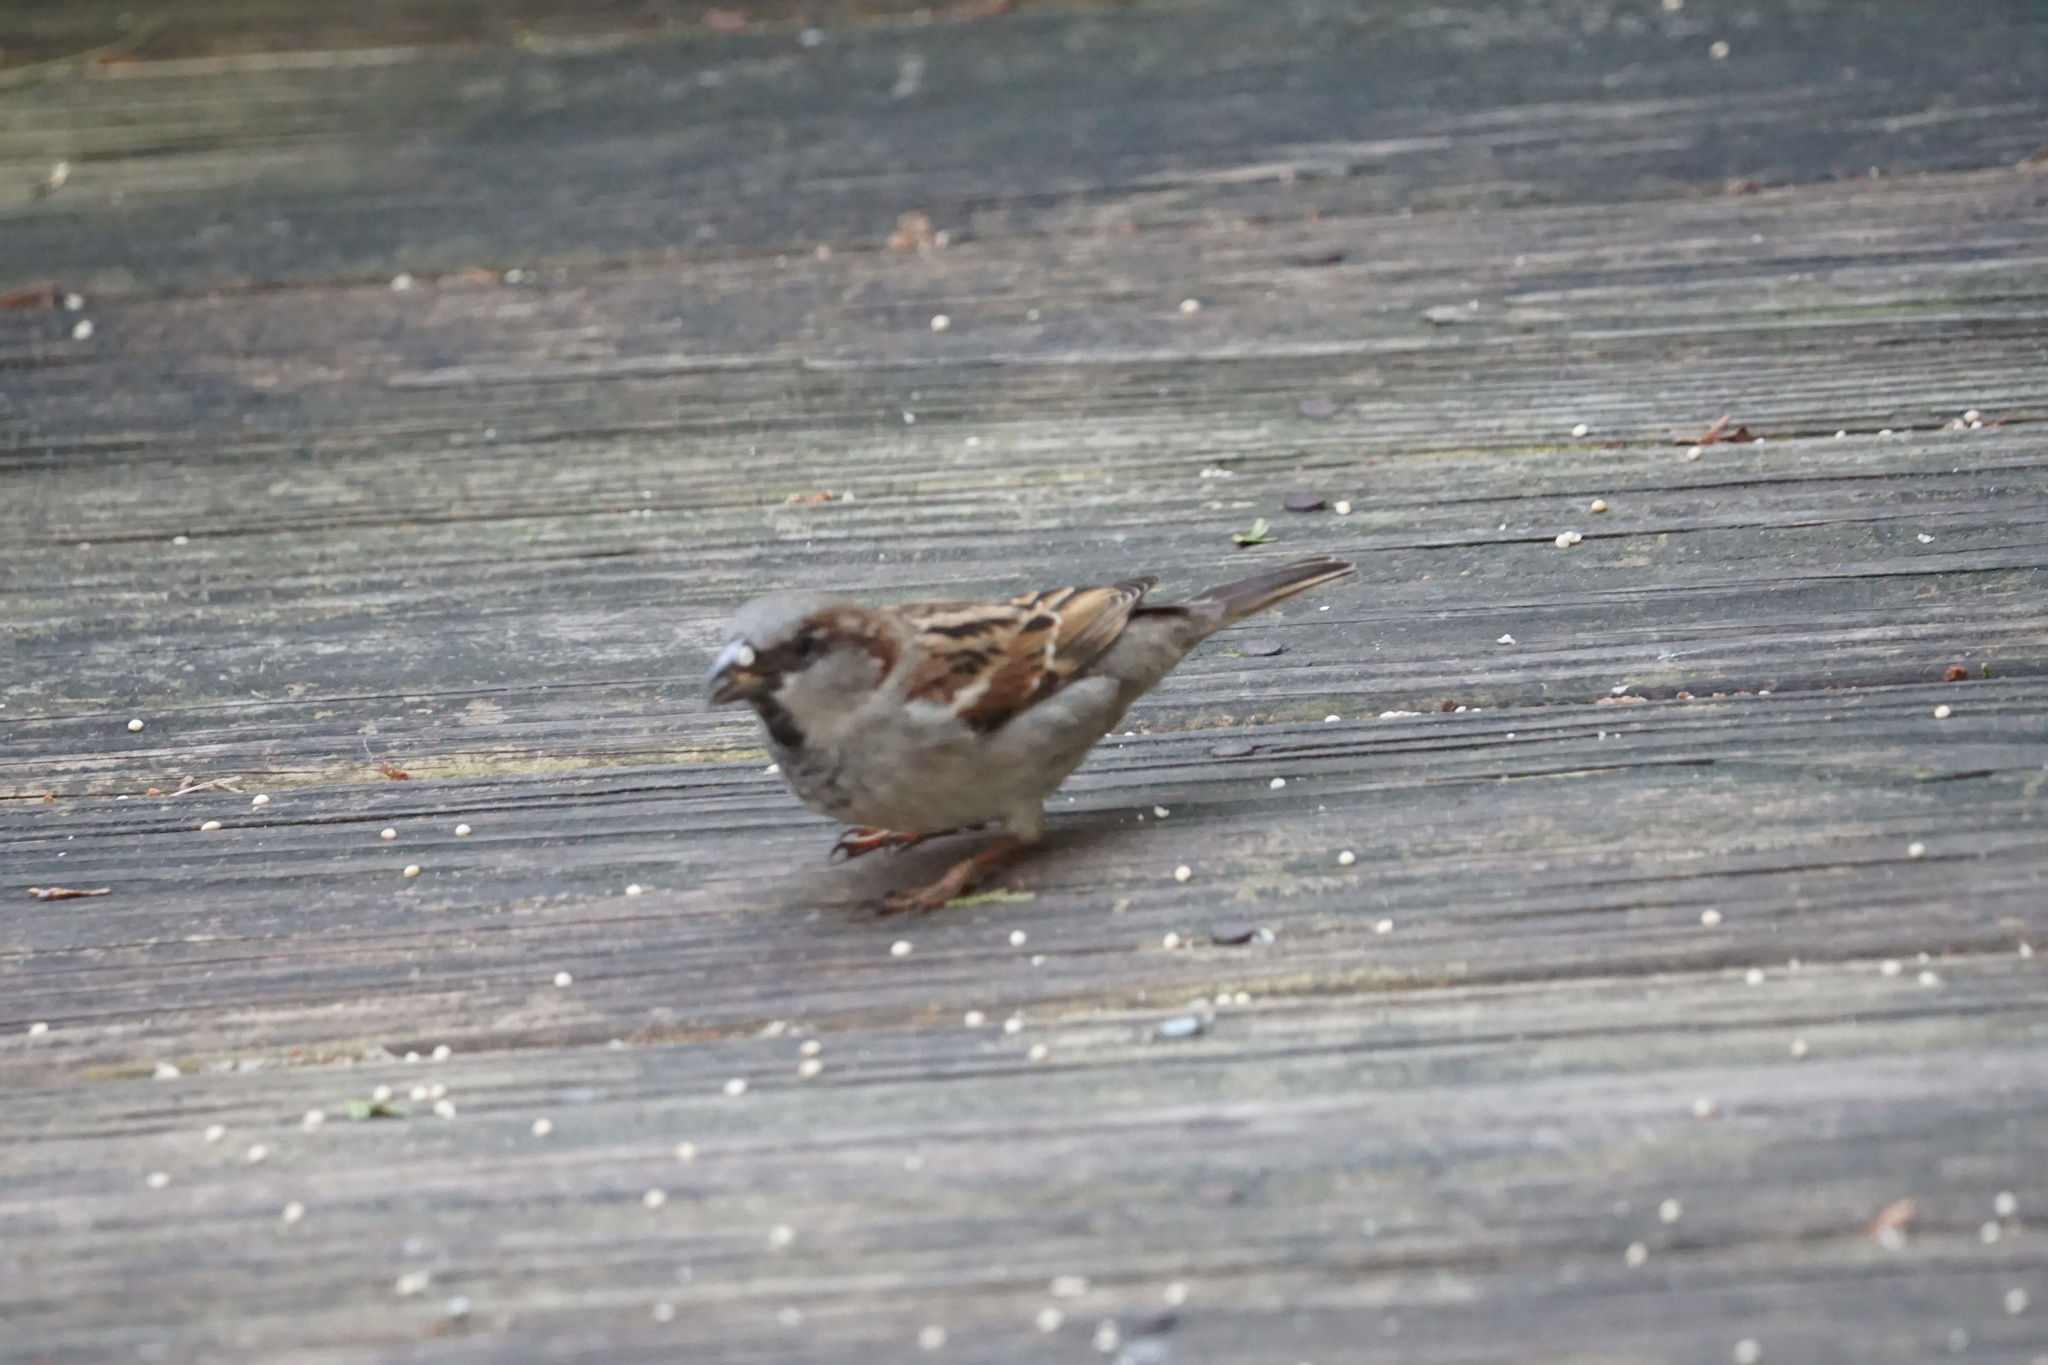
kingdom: Animalia
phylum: Chordata
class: Aves
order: Passeriformes
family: Passeridae
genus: Passer
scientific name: Passer domesticus
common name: House sparrow
